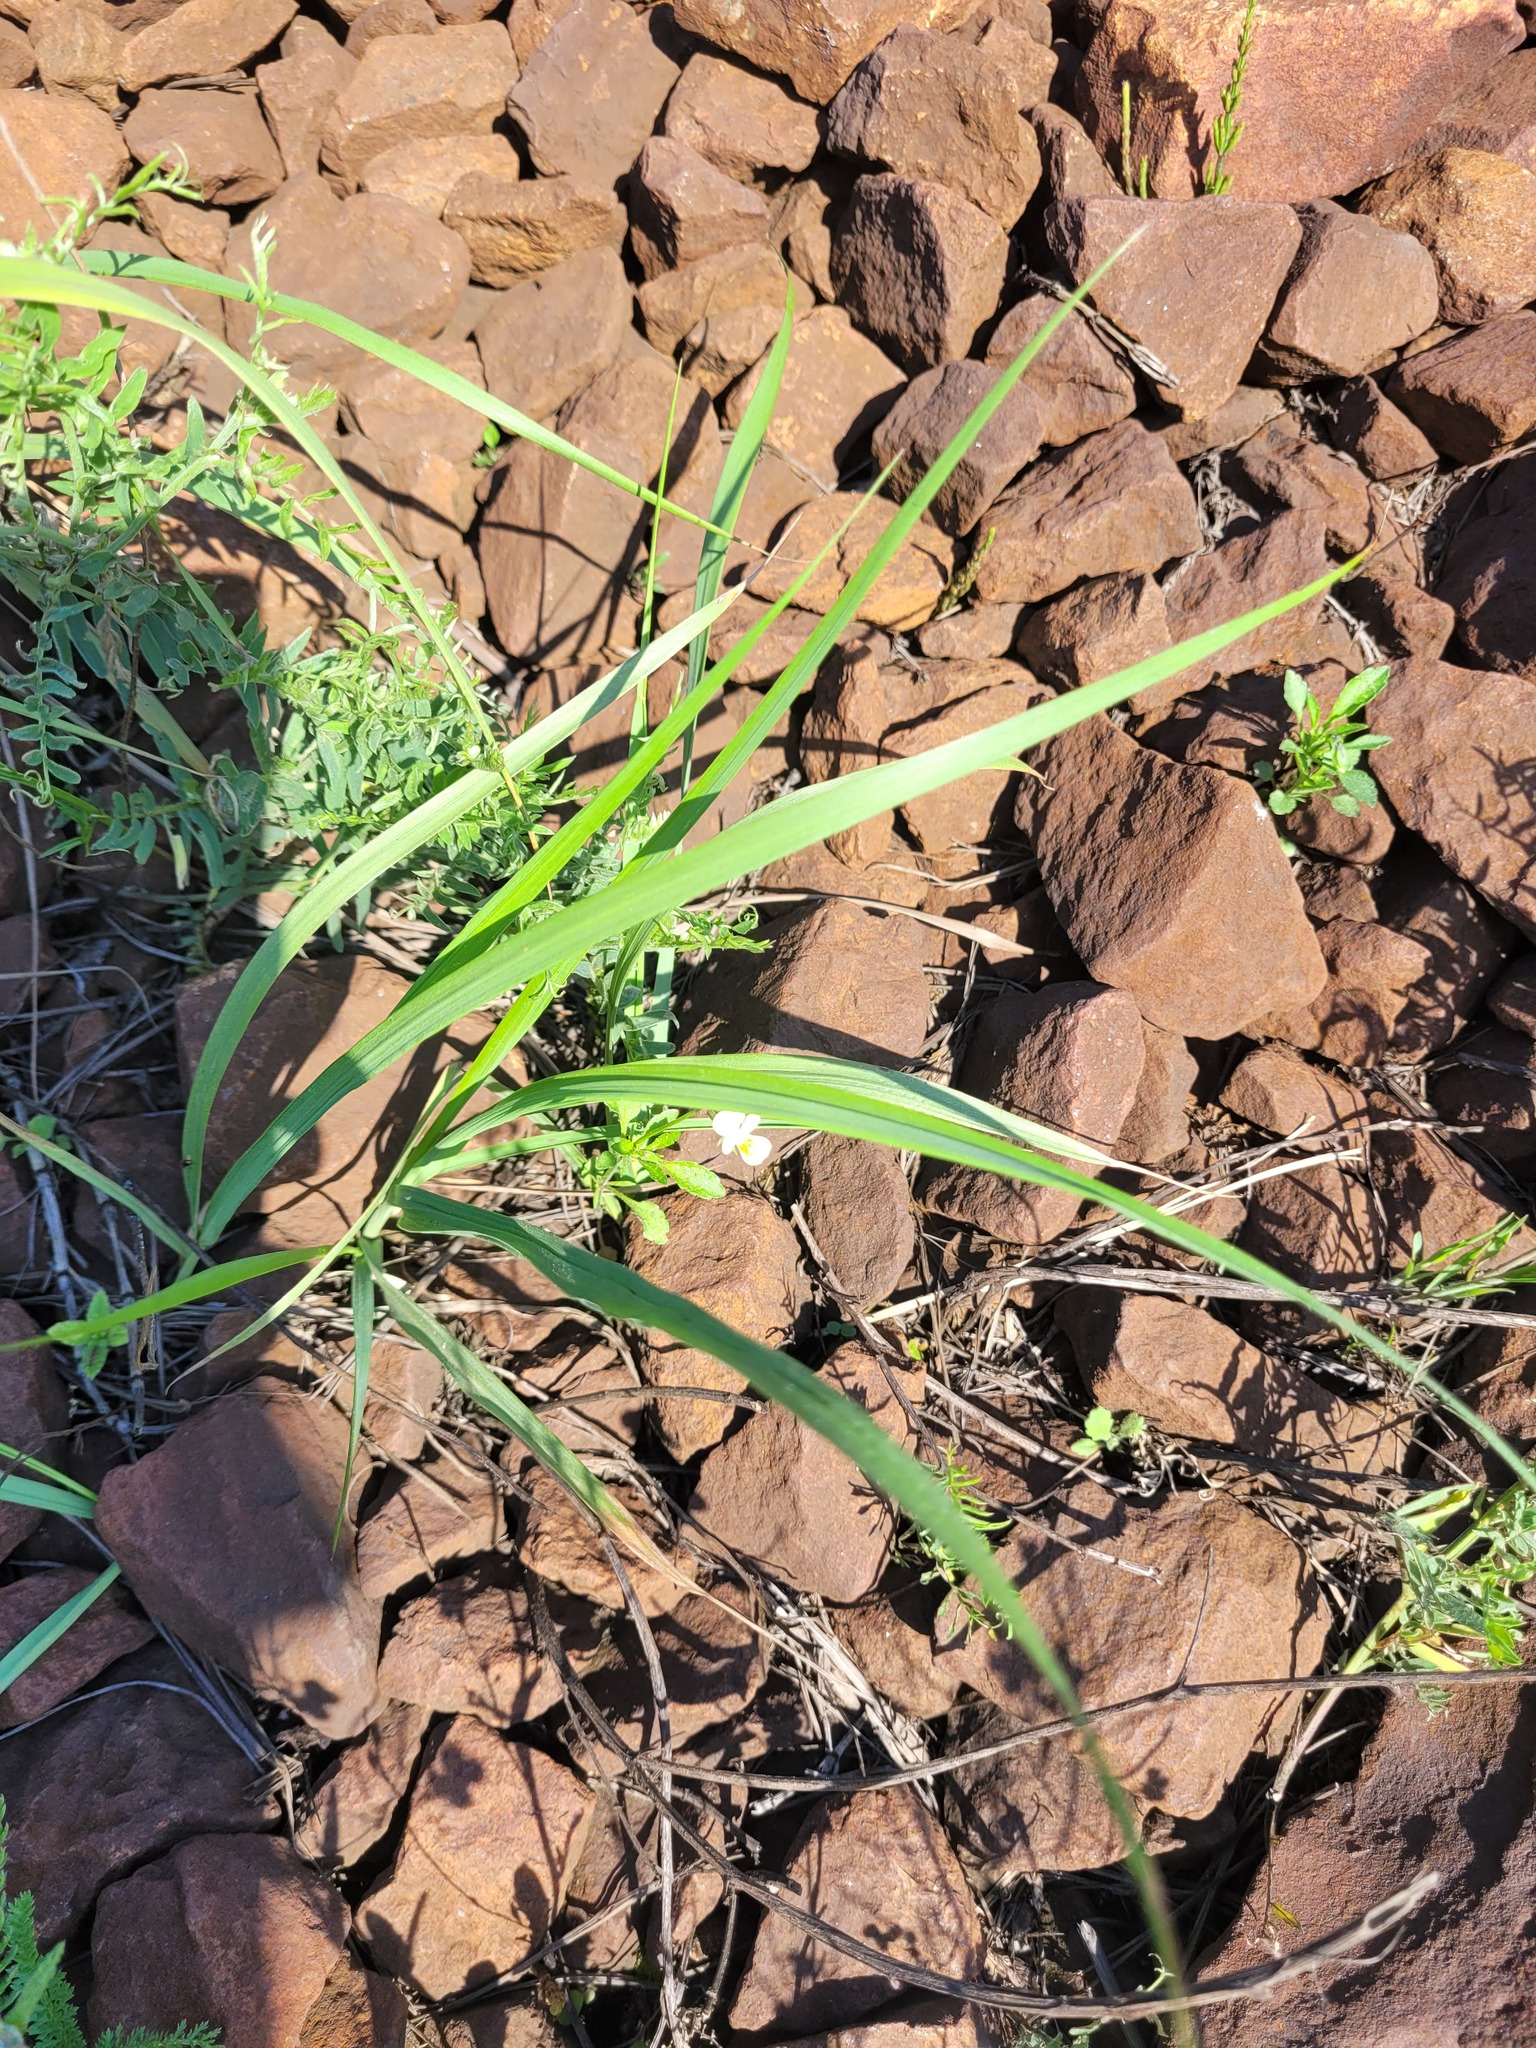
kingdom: Plantae
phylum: Tracheophyta
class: Magnoliopsida
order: Malpighiales
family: Violaceae
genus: Viola
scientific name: Viola arvensis
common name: Field pansy
